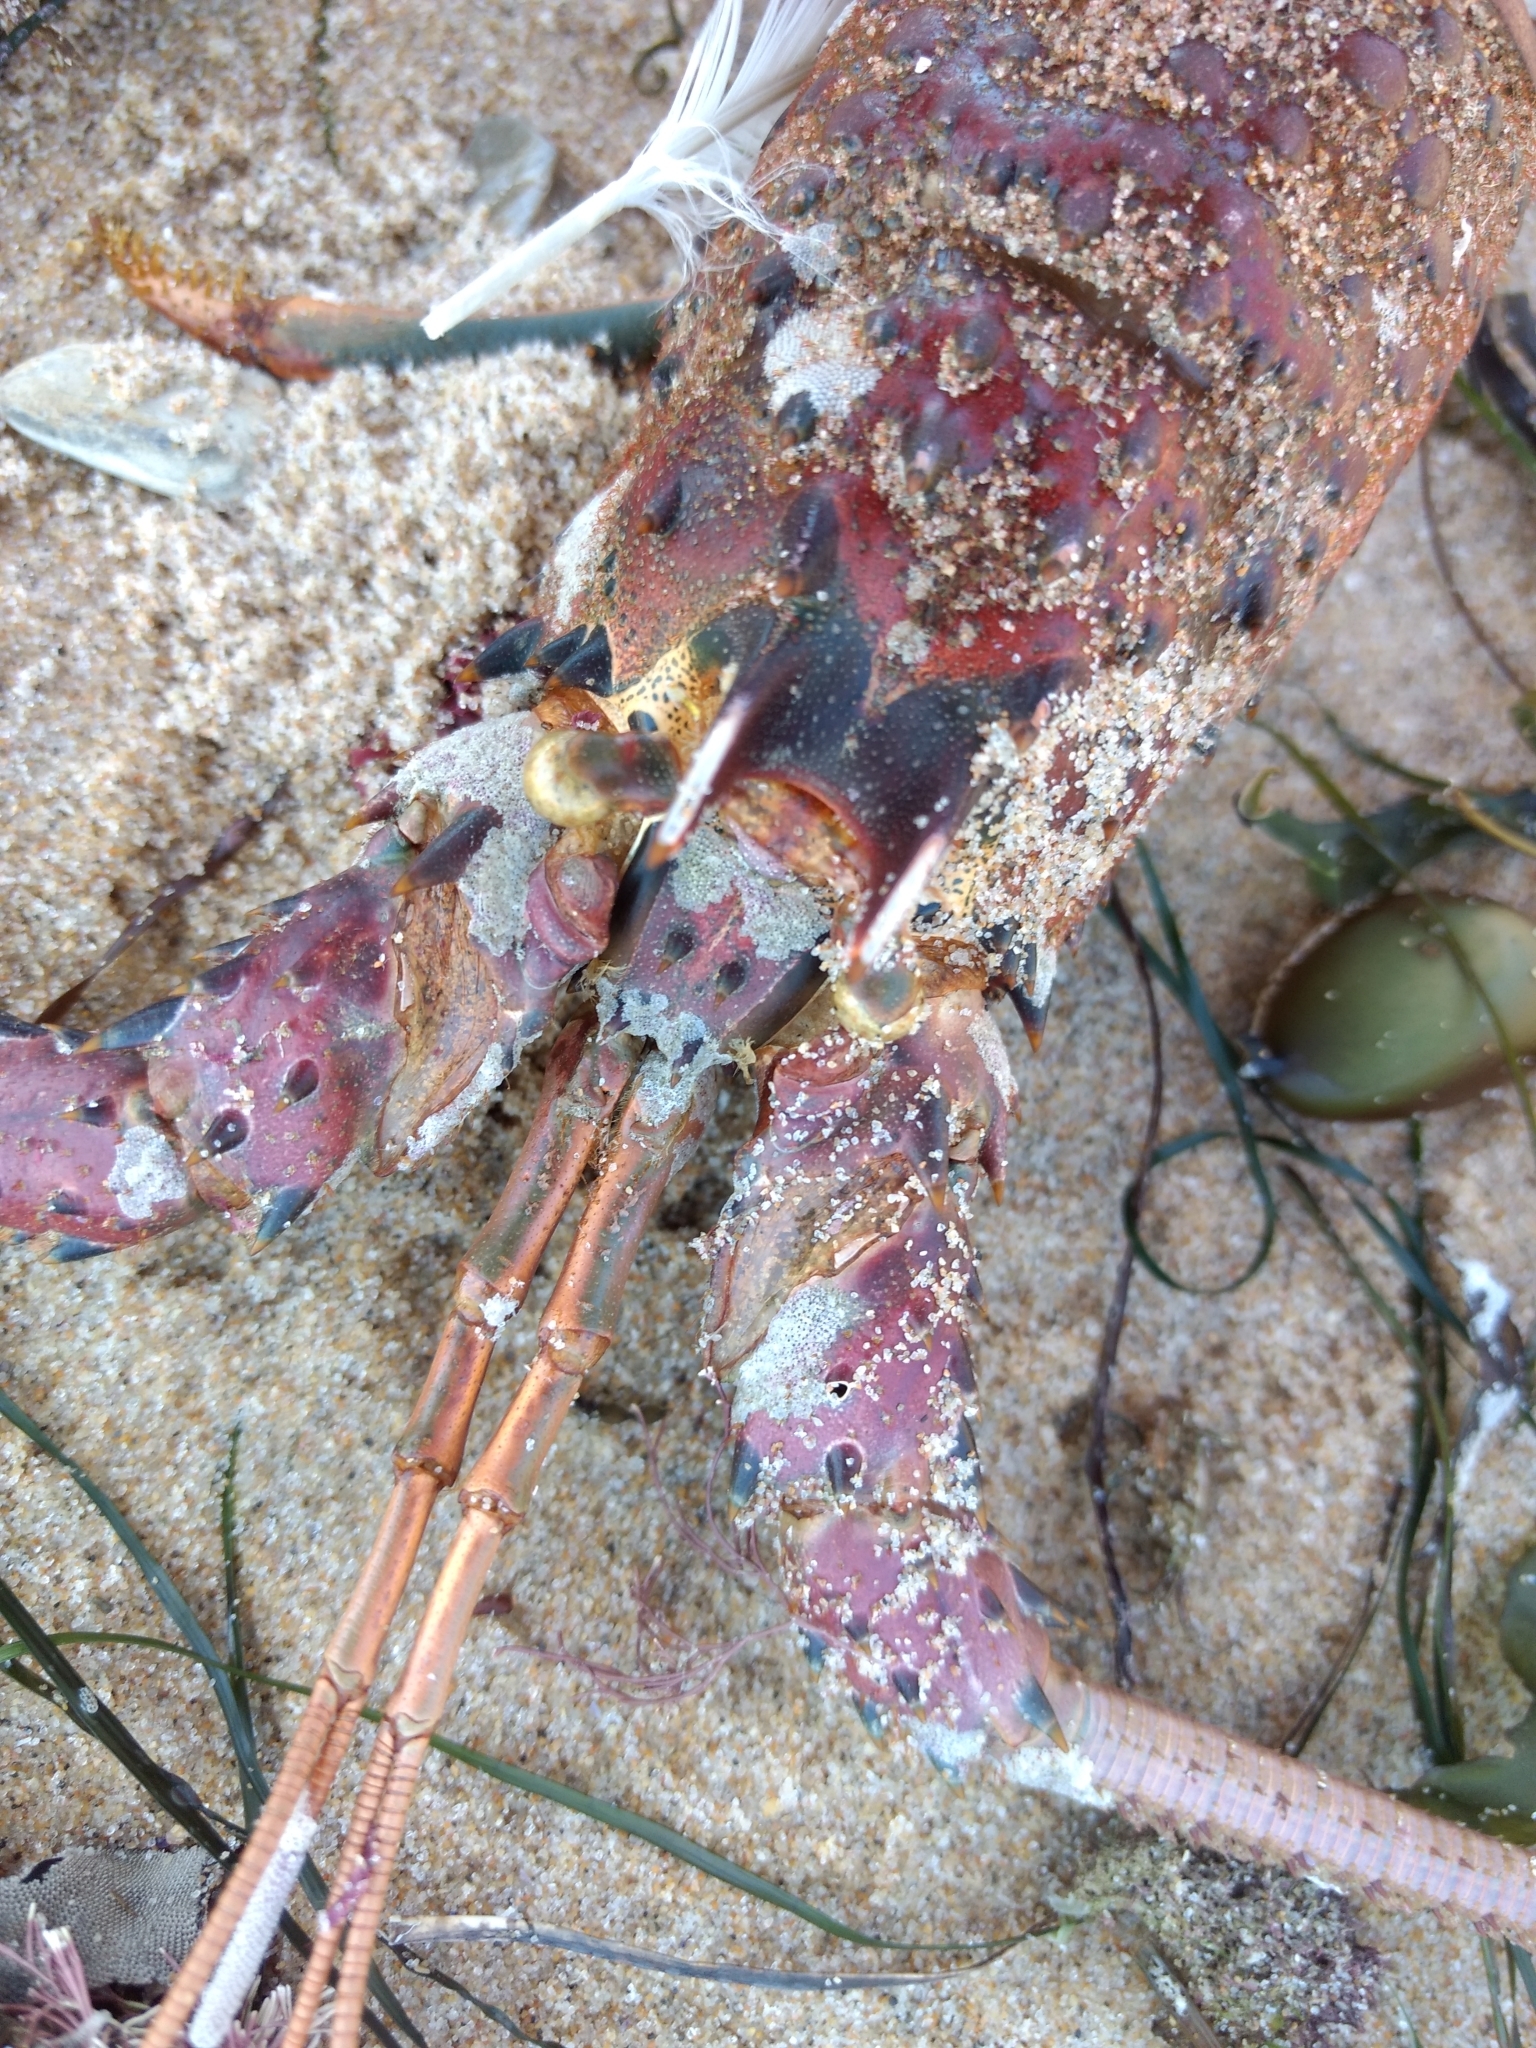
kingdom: Animalia
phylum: Arthropoda
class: Malacostraca
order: Decapoda
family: Palinuridae
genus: Panulirus
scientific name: Panulirus interruptus
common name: California spiny lobster
